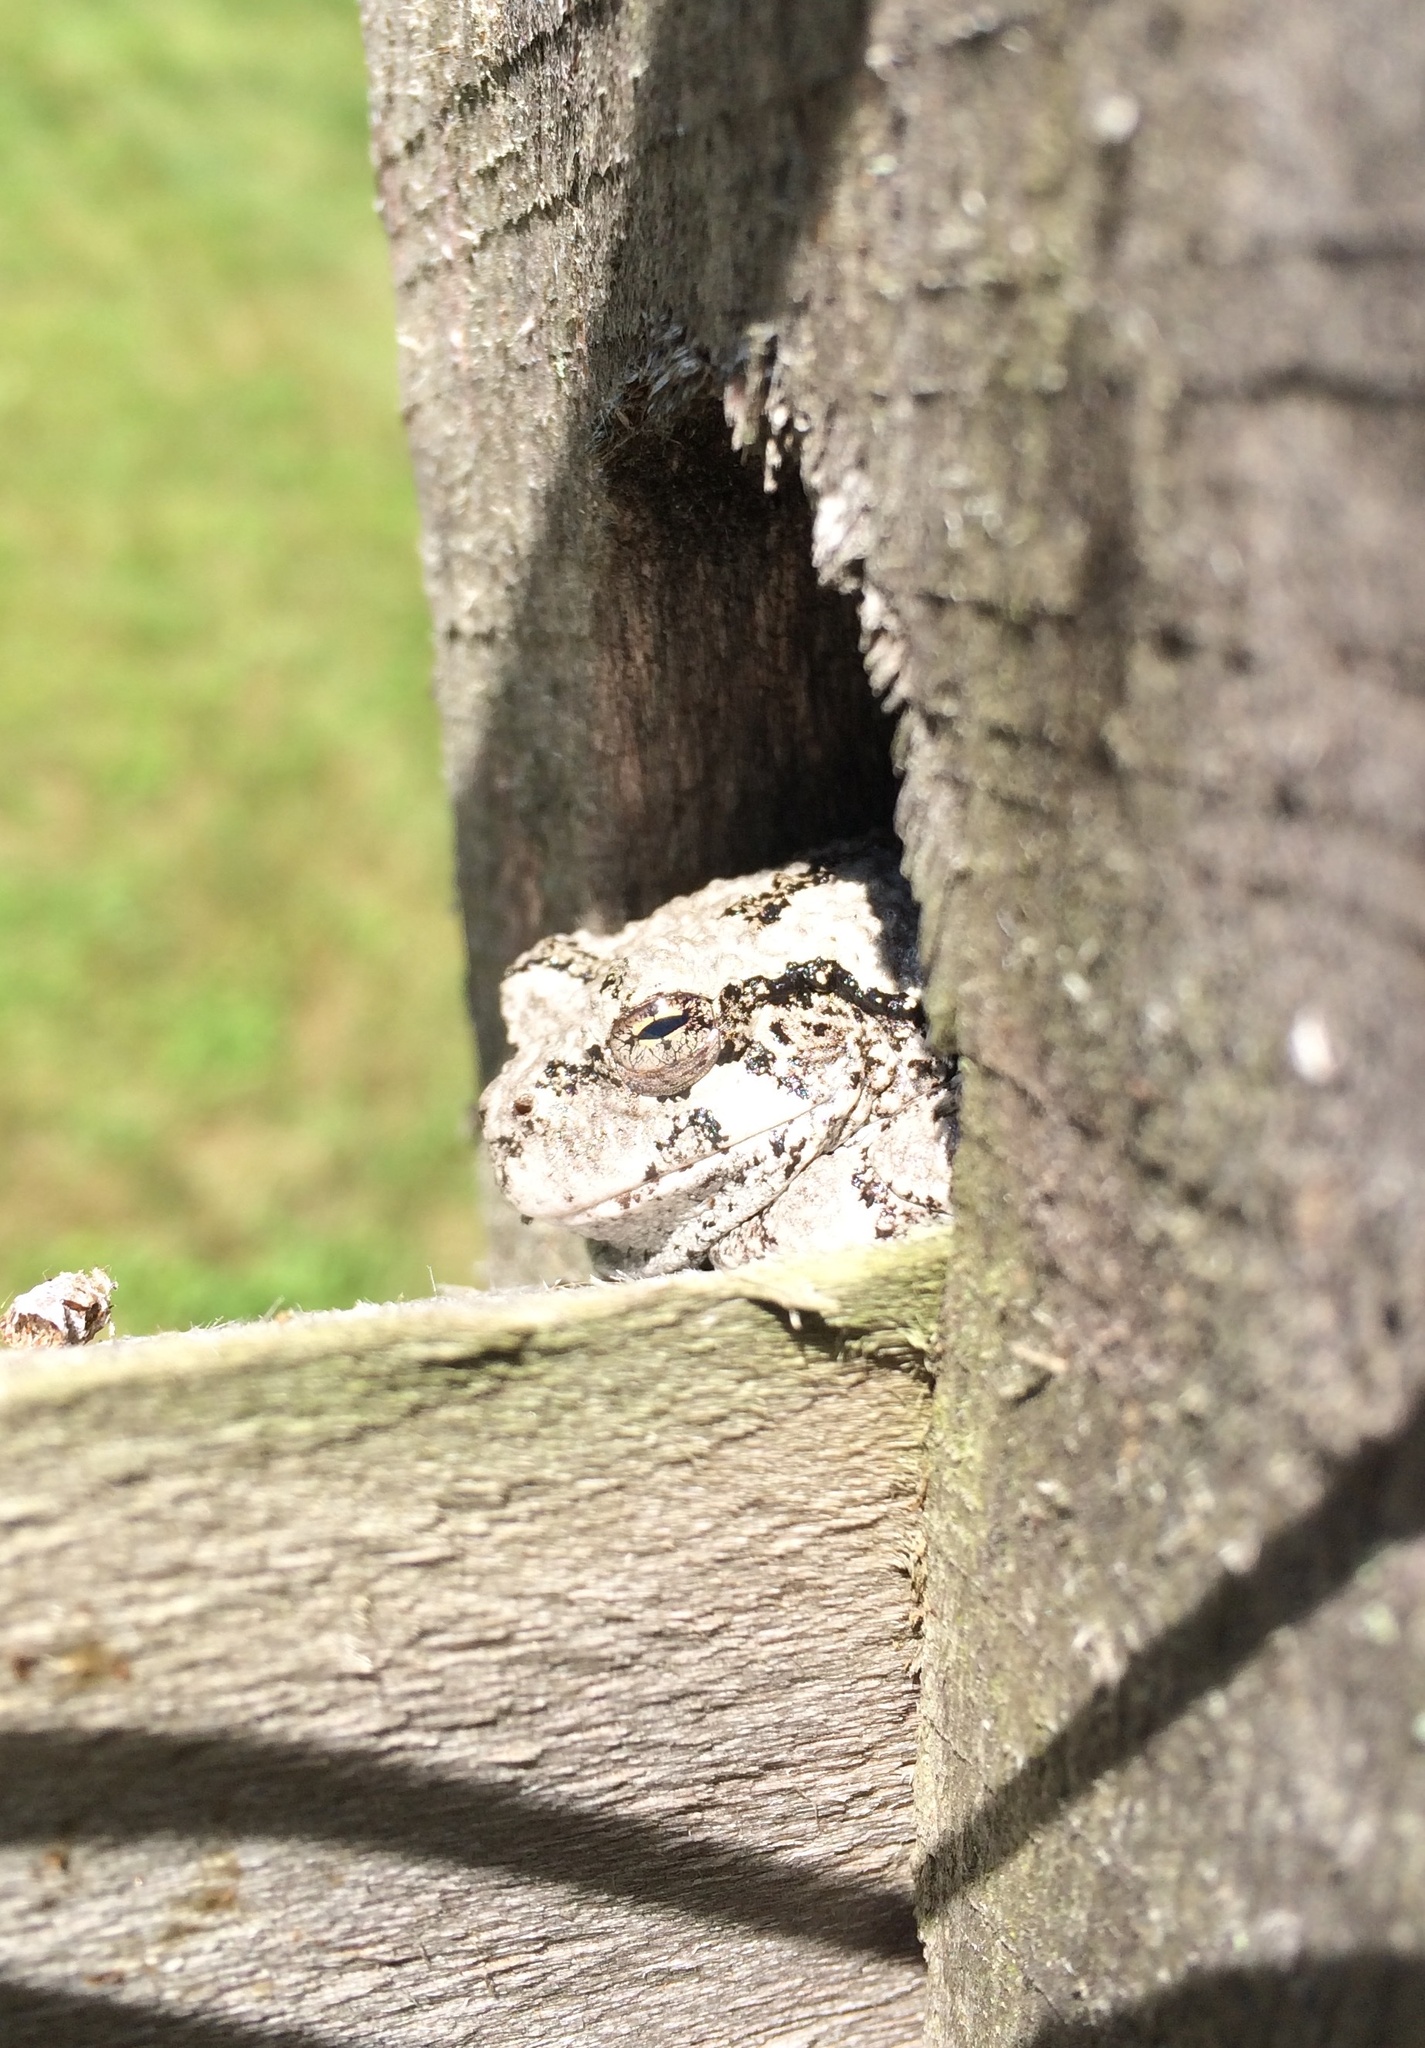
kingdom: Animalia
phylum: Chordata
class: Amphibia
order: Anura
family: Hylidae
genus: Dryophytes
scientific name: Dryophytes versicolor
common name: Gray treefrog
